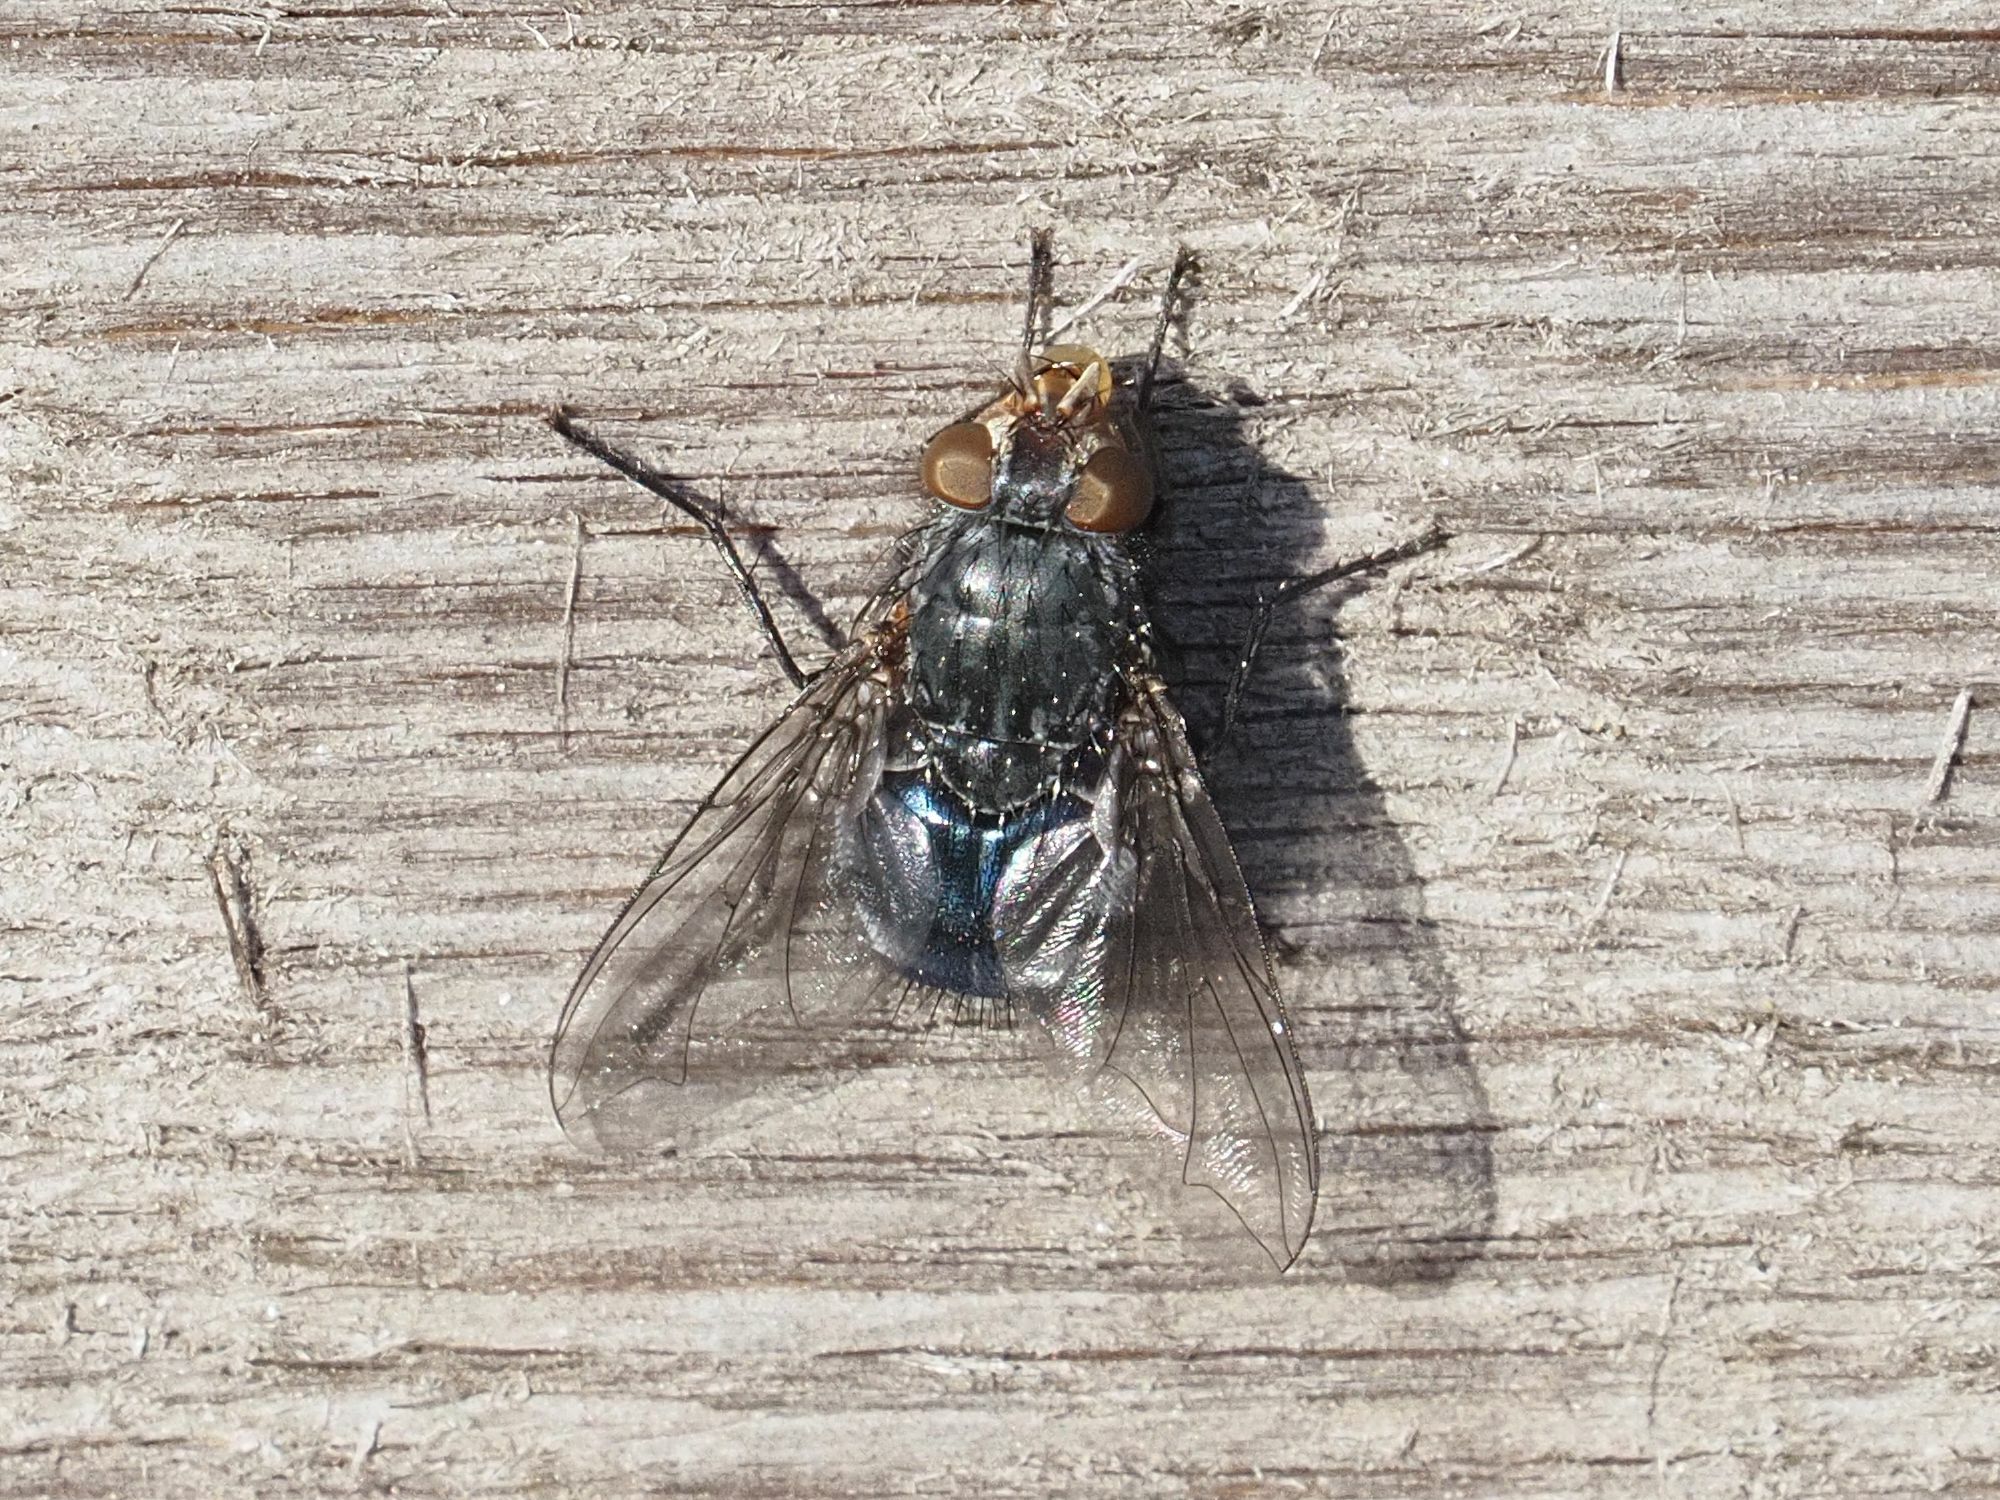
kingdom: Animalia
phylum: Arthropoda
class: Insecta
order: Diptera
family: Calliphoridae
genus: Calliphora
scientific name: Calliphora vicina
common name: Common blow flie
